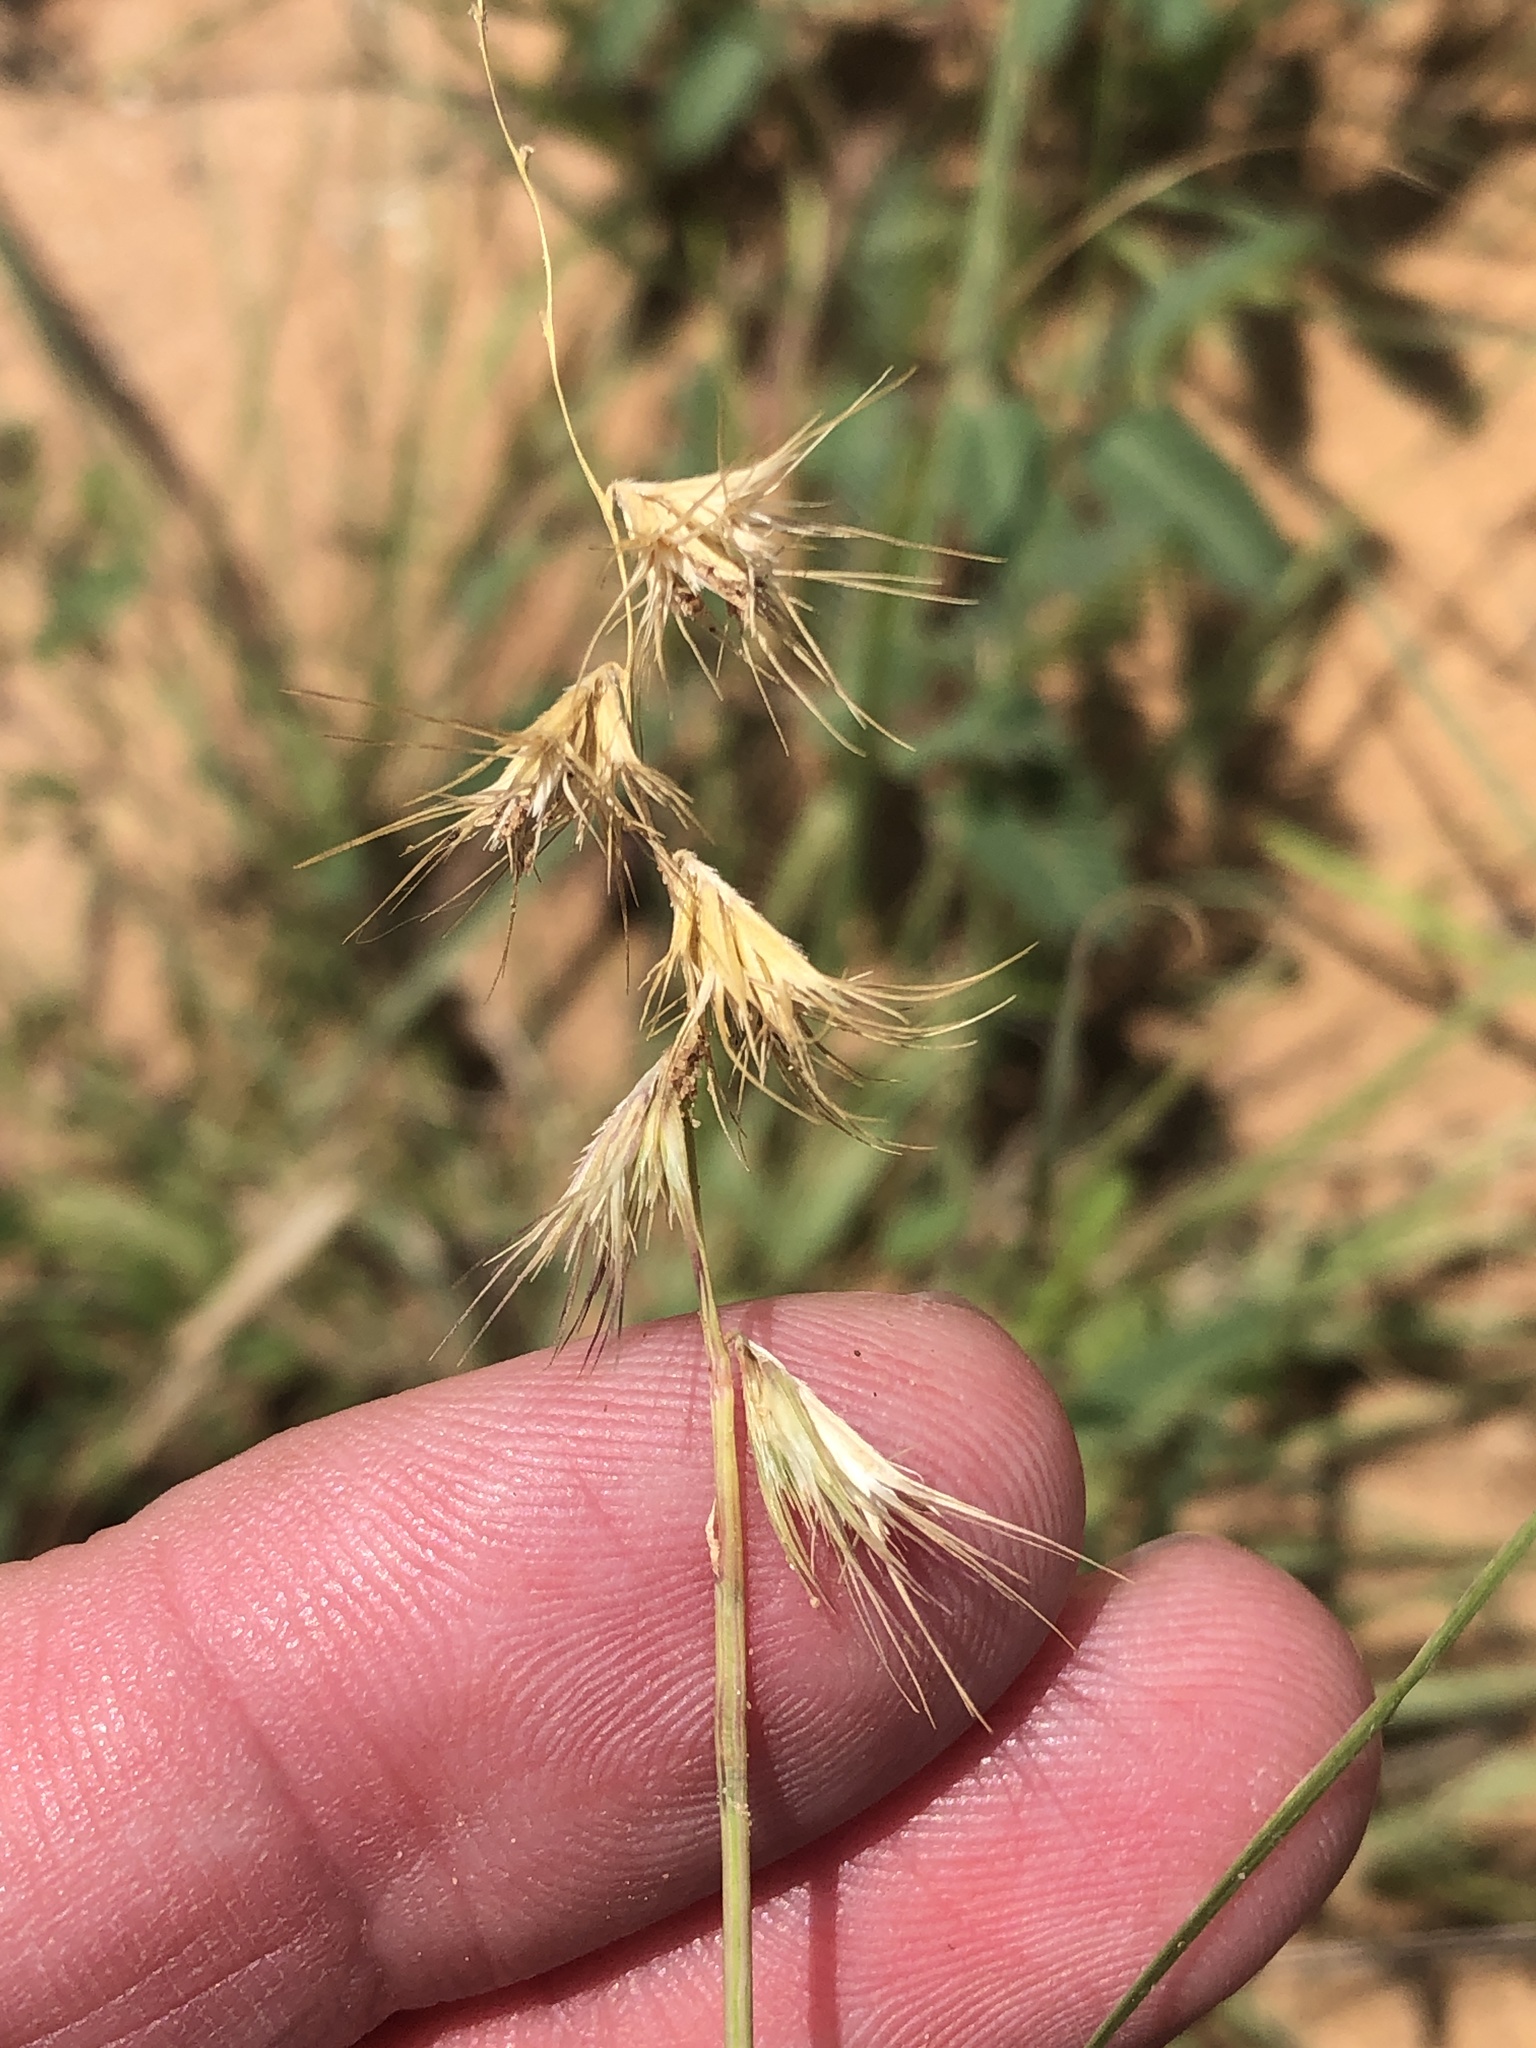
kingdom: Plantae
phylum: Tracheophyta
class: Liliopsida
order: Poales
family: Poaceae
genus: Bouteloua
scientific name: Bouteloua rigidiseta
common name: Texas grama
